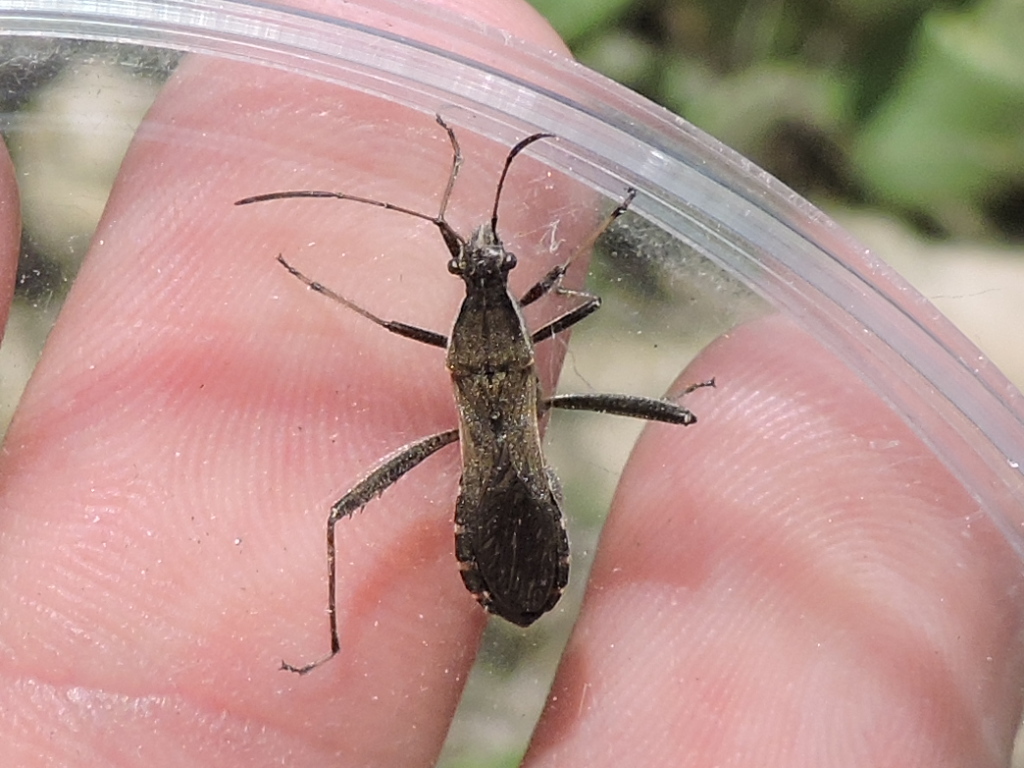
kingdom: Animalia
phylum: Arthropoda
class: Insecta
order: Hemiptera
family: Alydidae
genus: Alydus
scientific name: Alydus pilosulus
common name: Broad-headed bug
